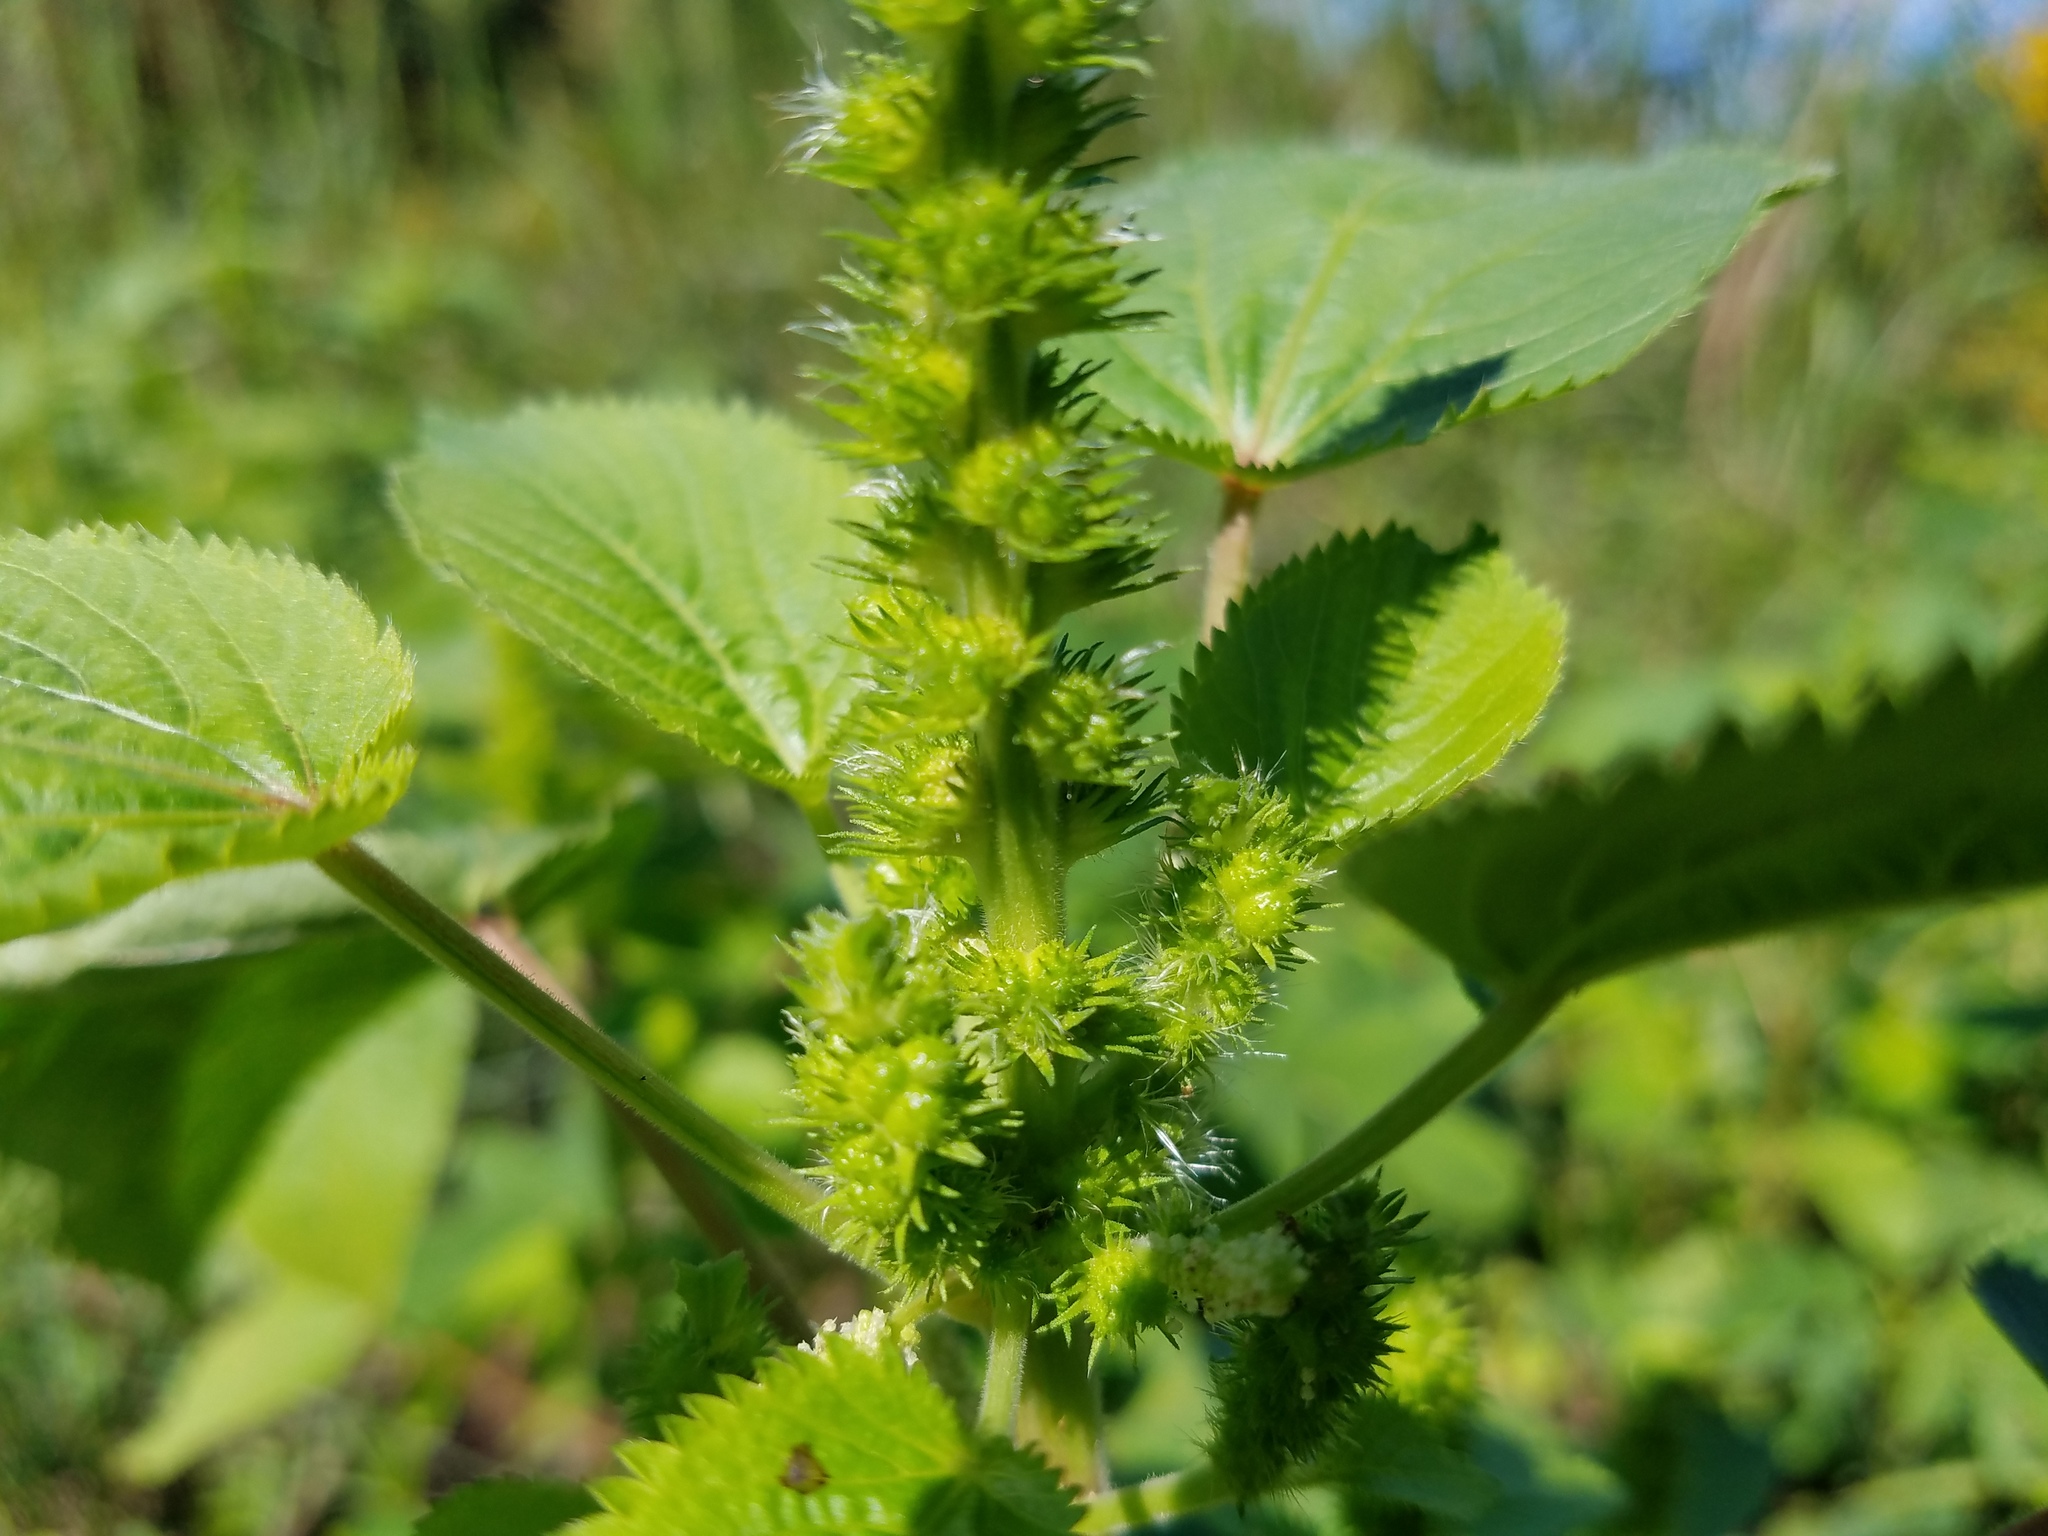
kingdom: Plantae
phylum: Tracheophyta
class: Magnoliopsida
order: Malpighiales
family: Euphorbiaceae
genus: Acalypha
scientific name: Acalypha ostryifolia
